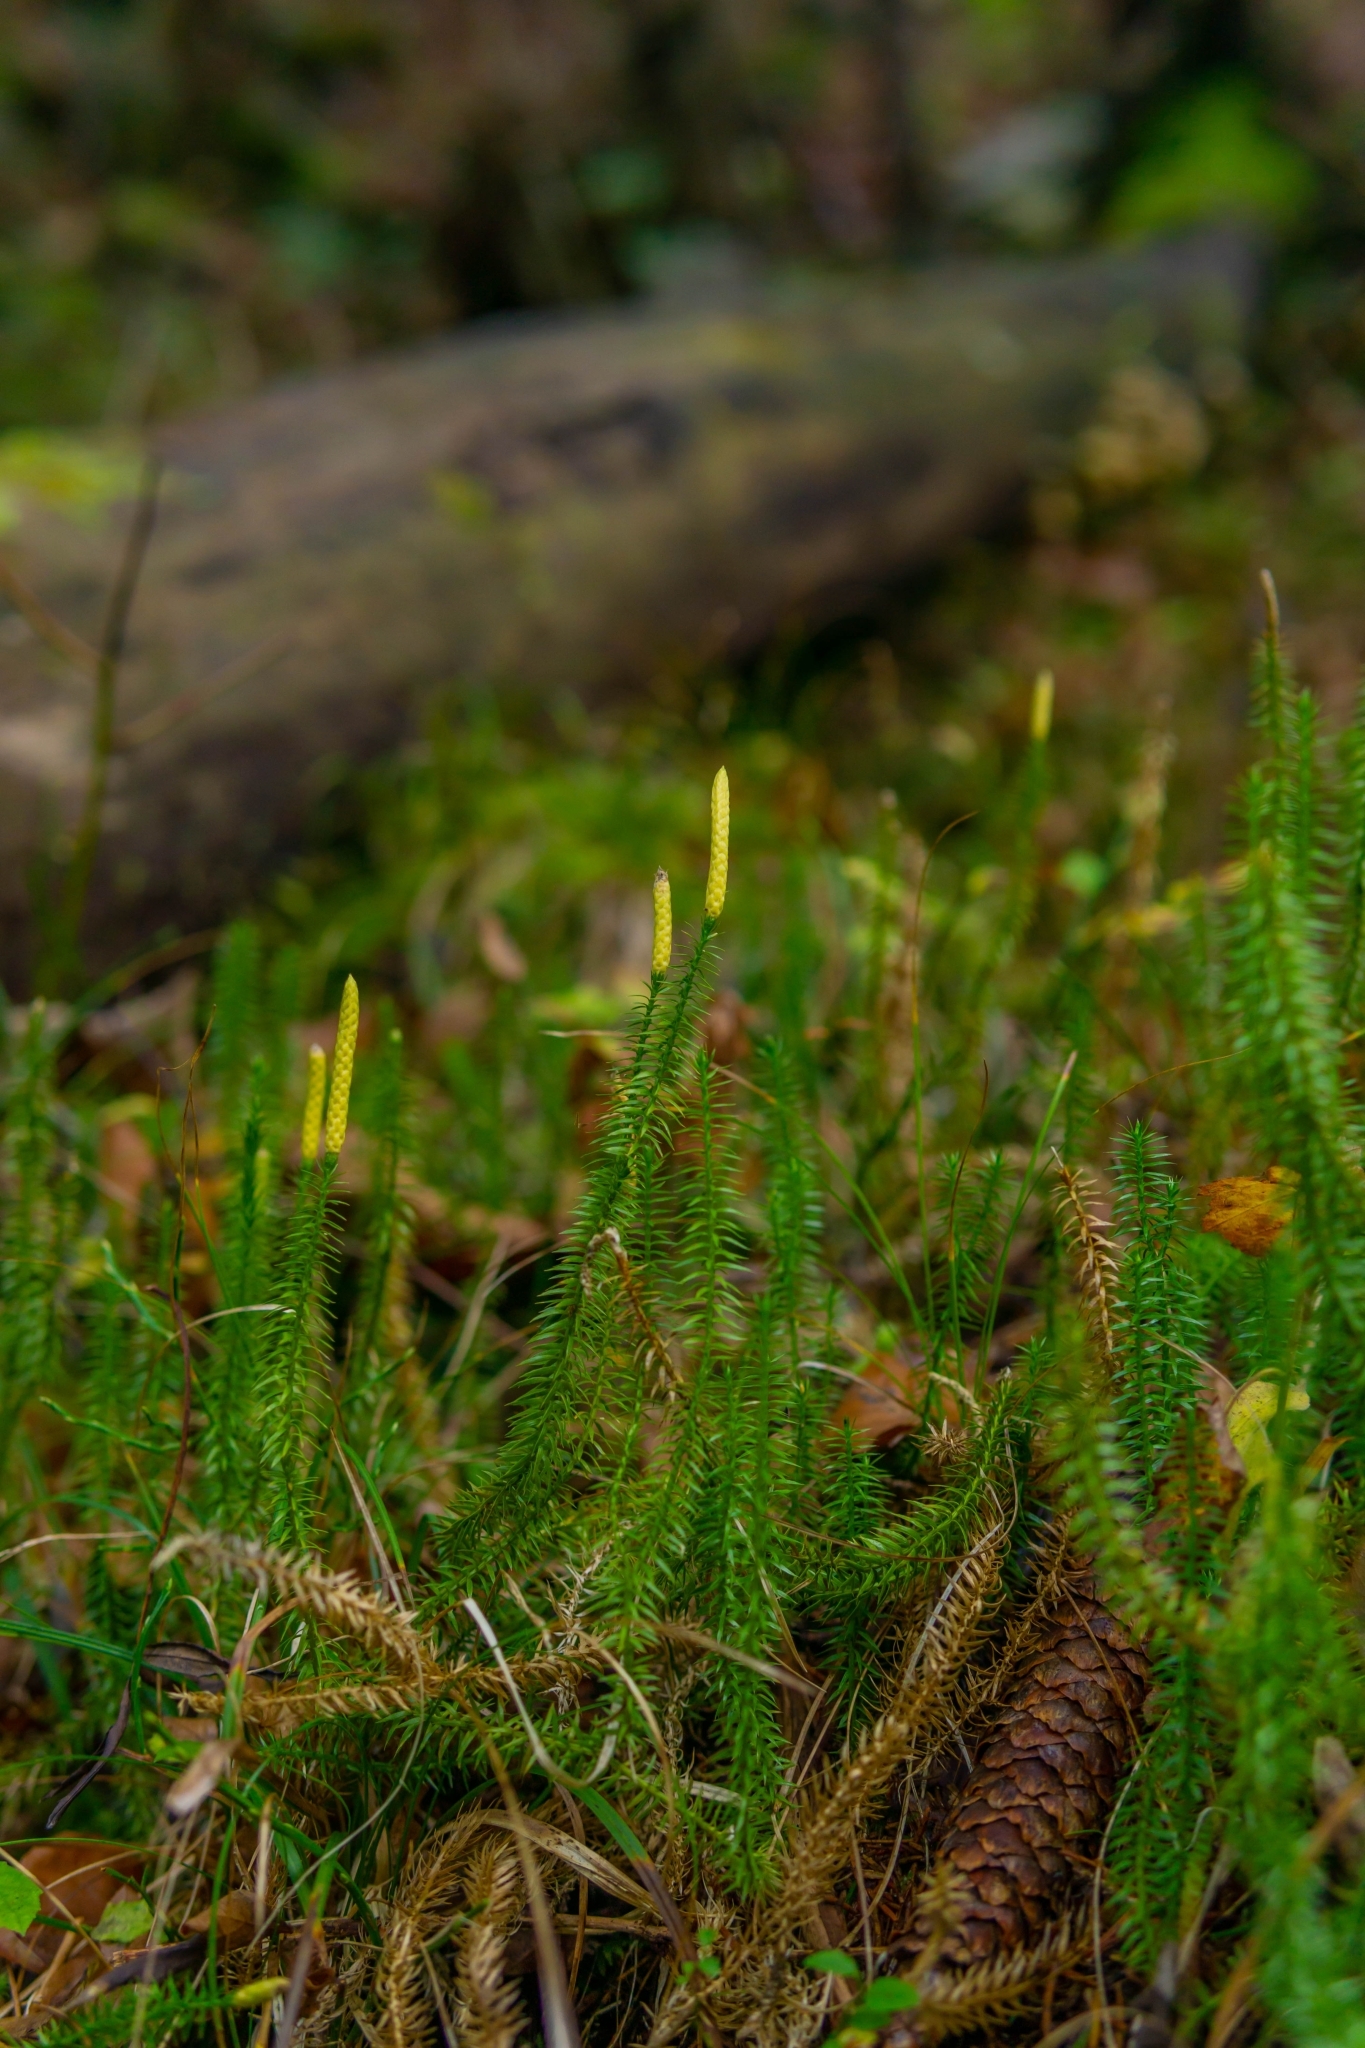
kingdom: Plantae
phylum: Tracheophyta
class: Lycopodiopsida
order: Lycopodiales
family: Lycopodiaceae
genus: Spinulum
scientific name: Spinulum annotinum
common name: Interrupted club-moss
